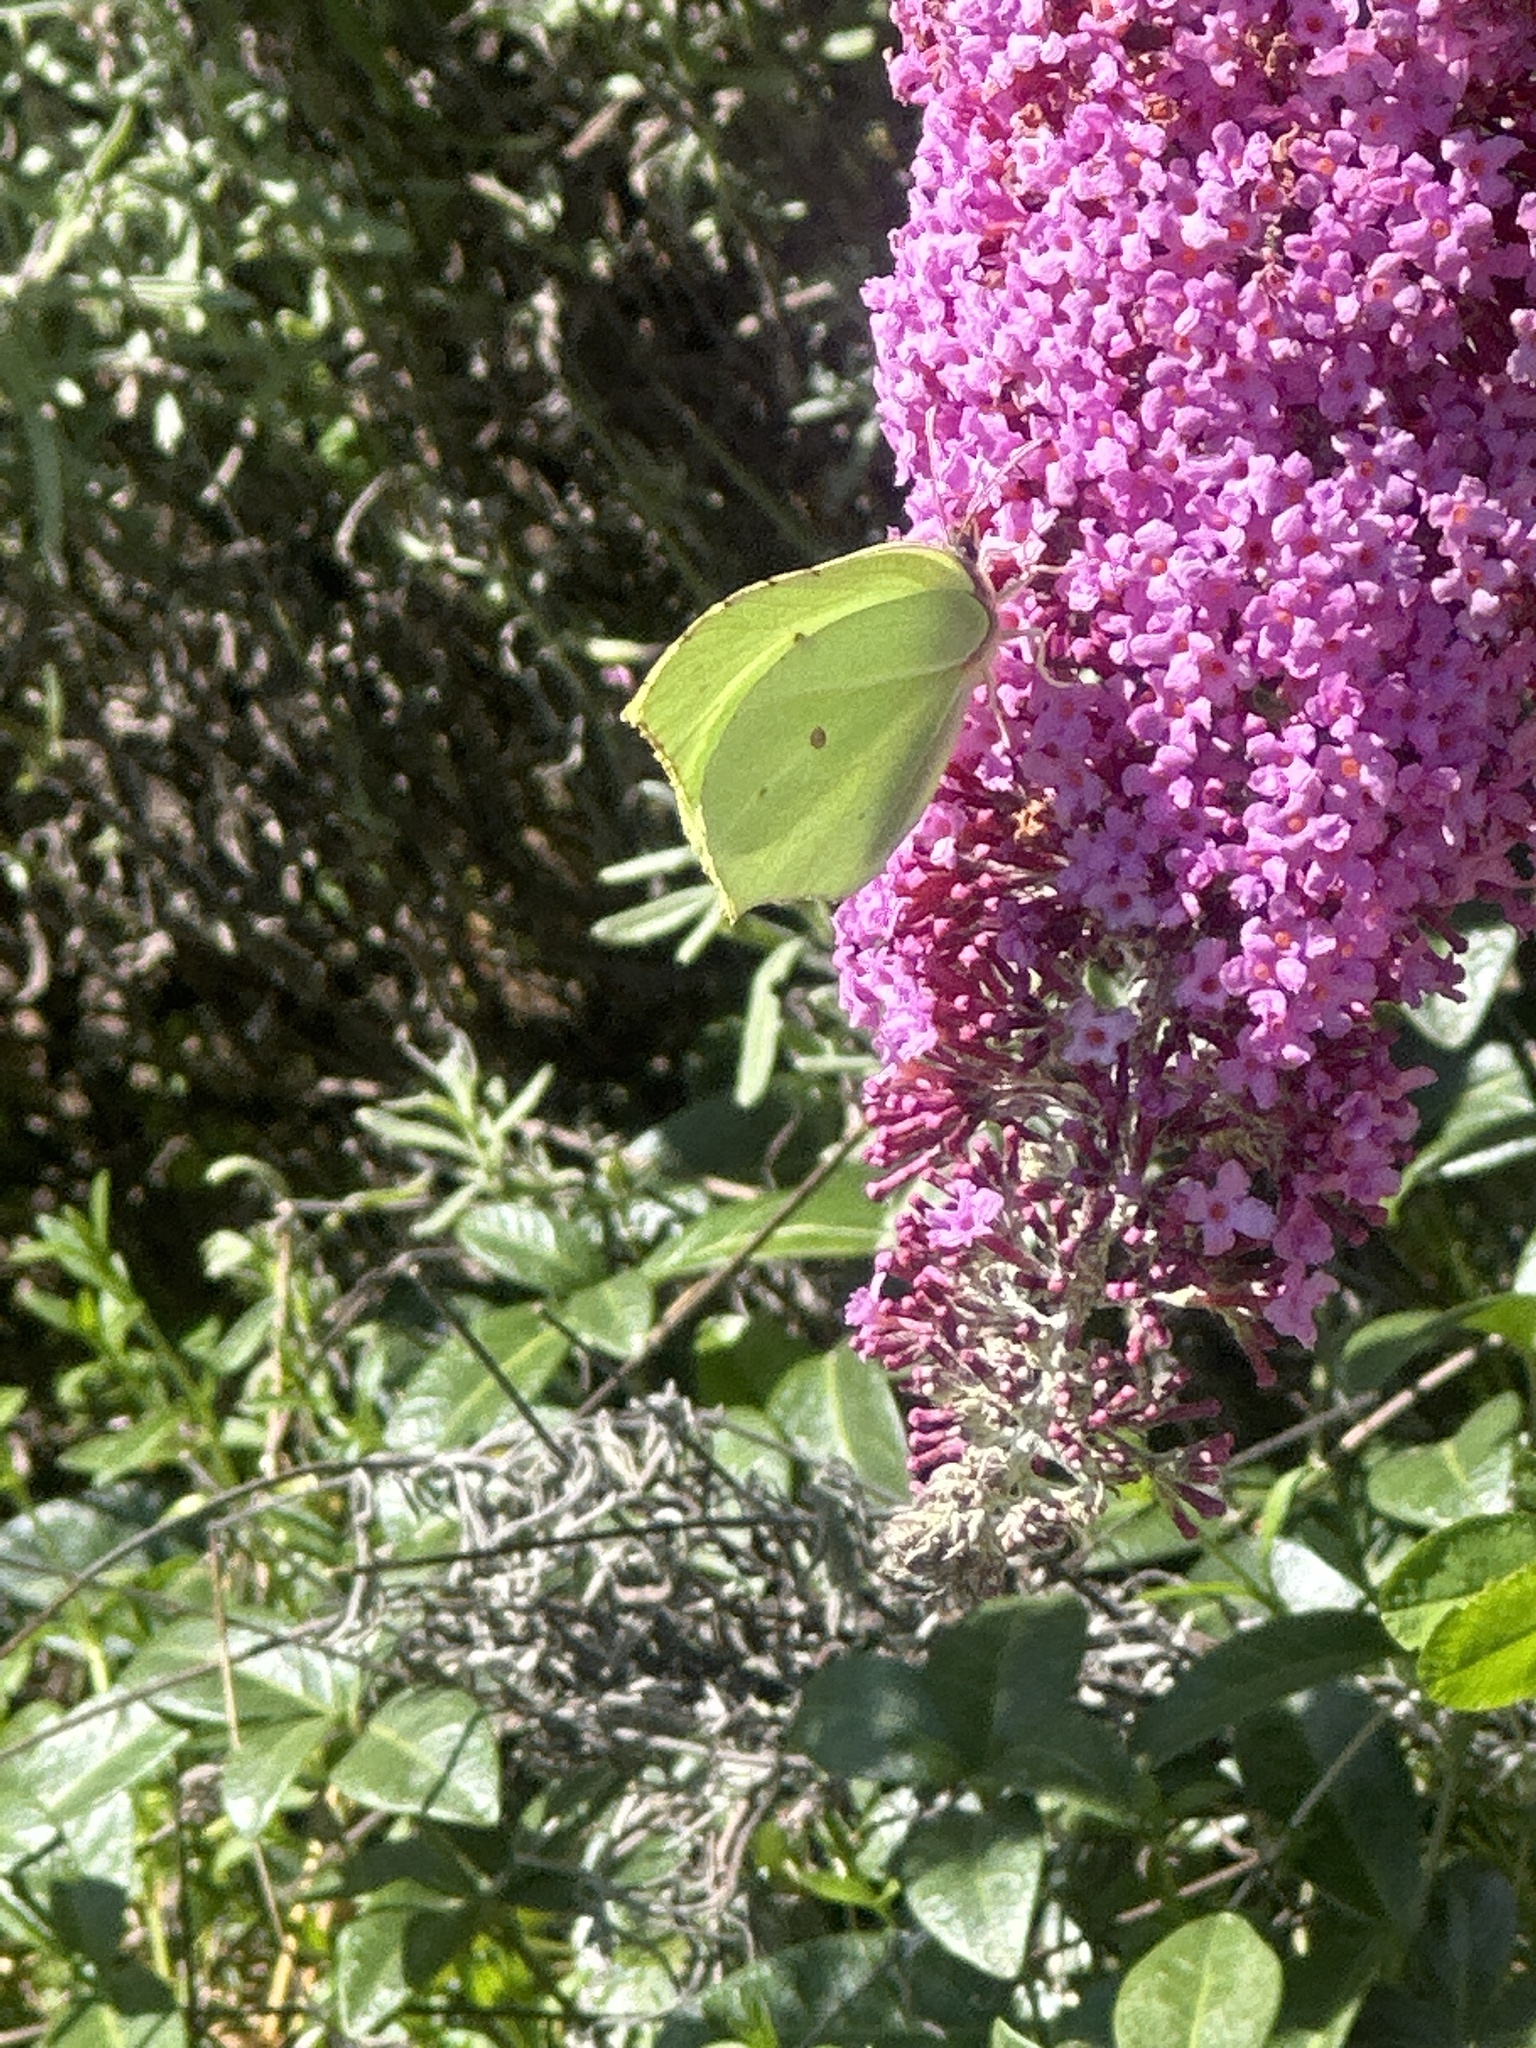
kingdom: Animalia
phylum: Arthropoda
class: Insecta
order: Lepidoptera
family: Pieridae
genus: Gonepteryx
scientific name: Gonepteryx rhamni
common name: Brimstone
